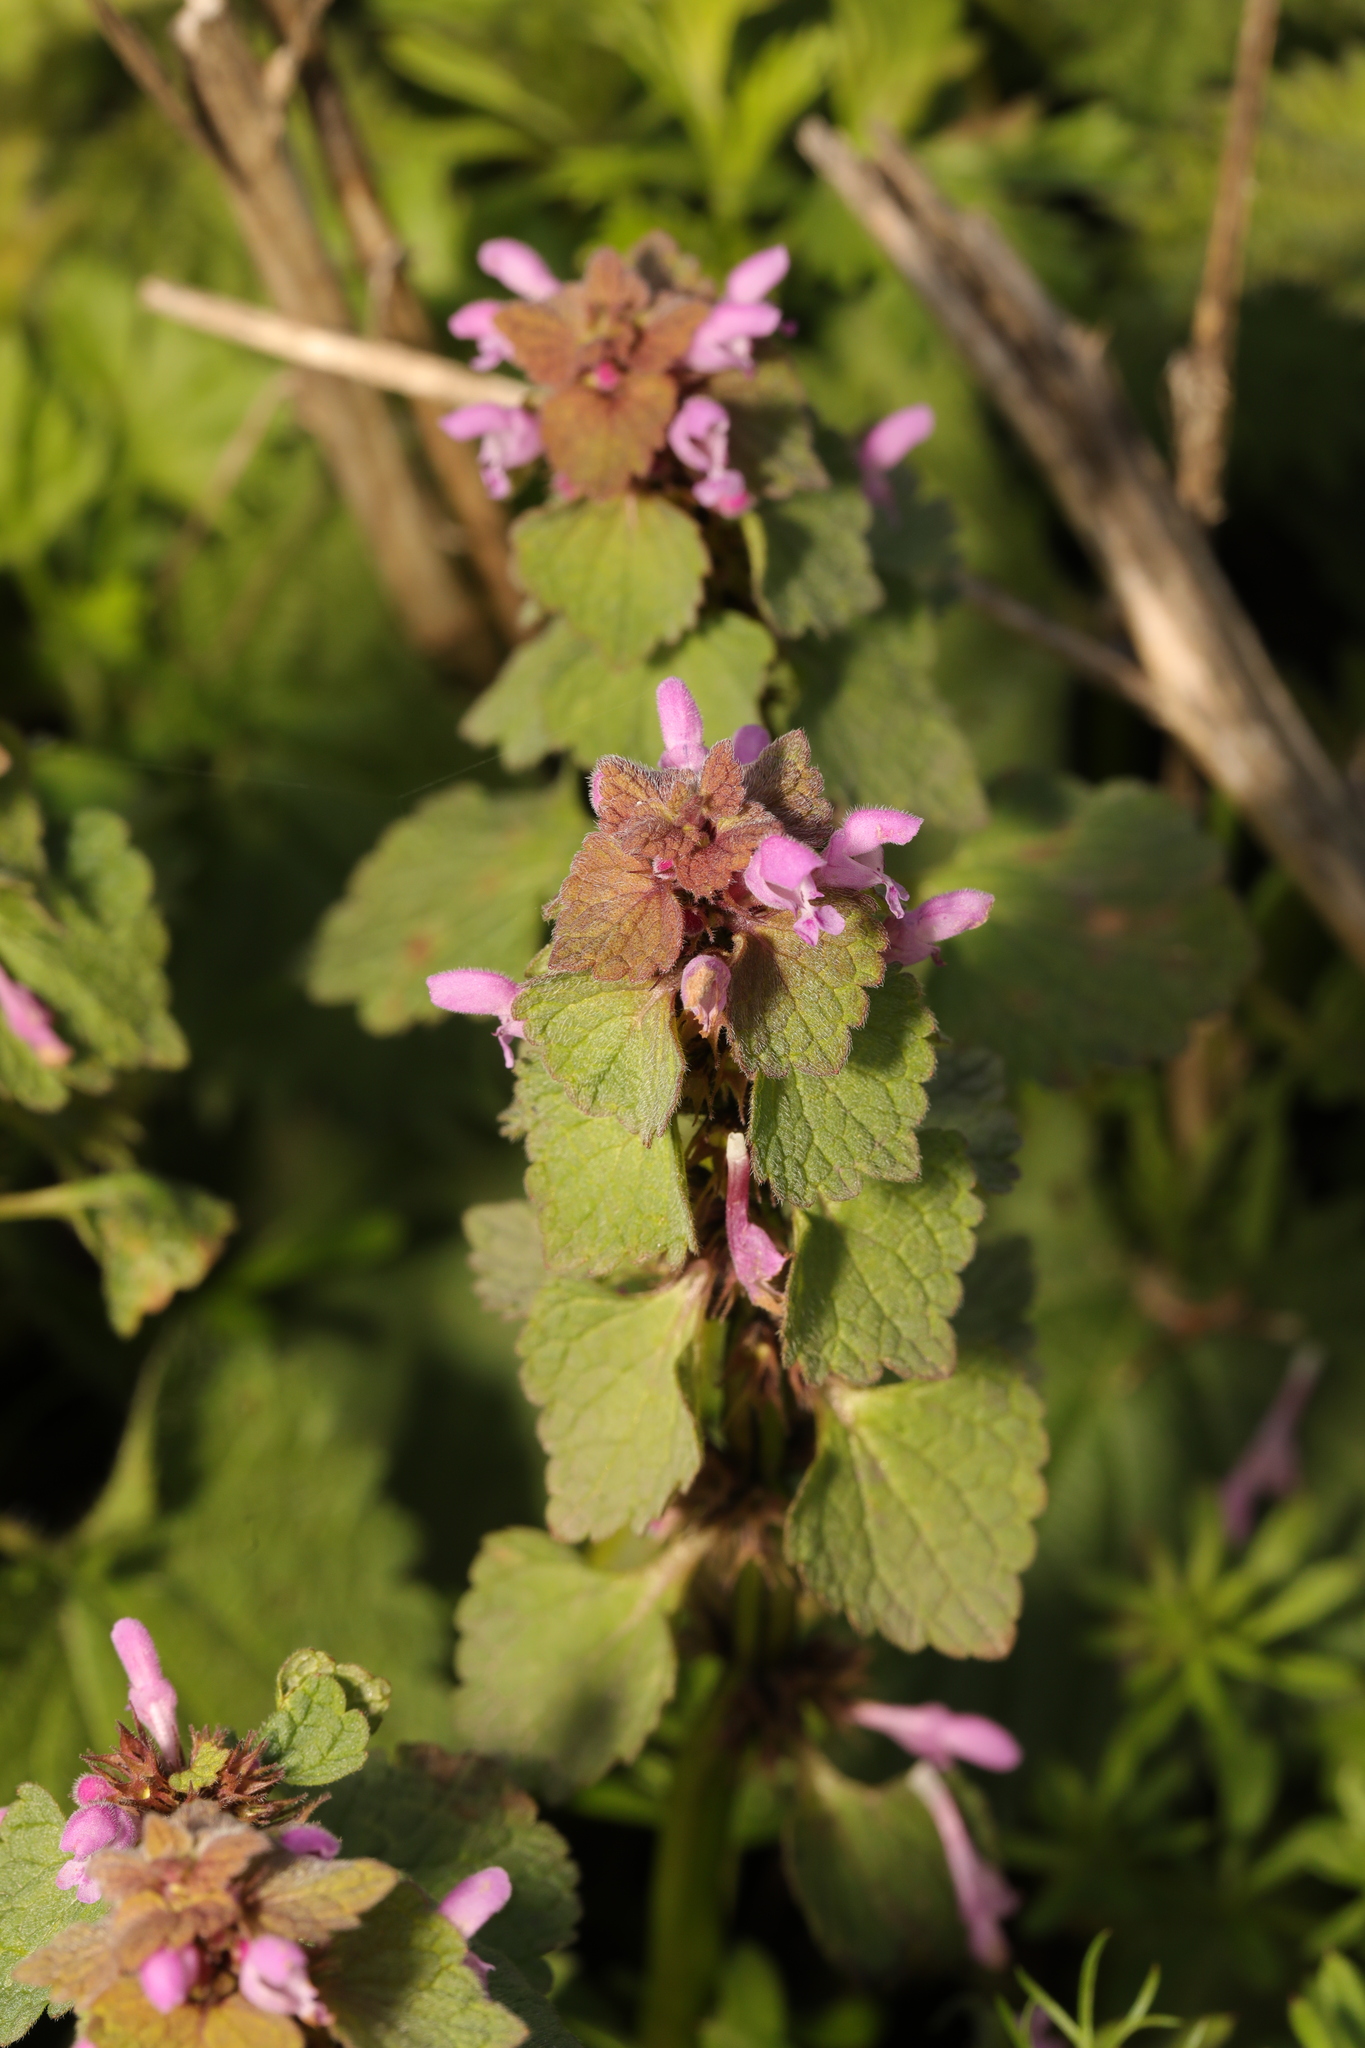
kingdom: Plantae
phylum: Tracheophyta
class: Magnoliopsida
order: Lamiales
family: Lamiaceae
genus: Lamium
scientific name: Lamium purpureum
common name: Red dead-nettle
